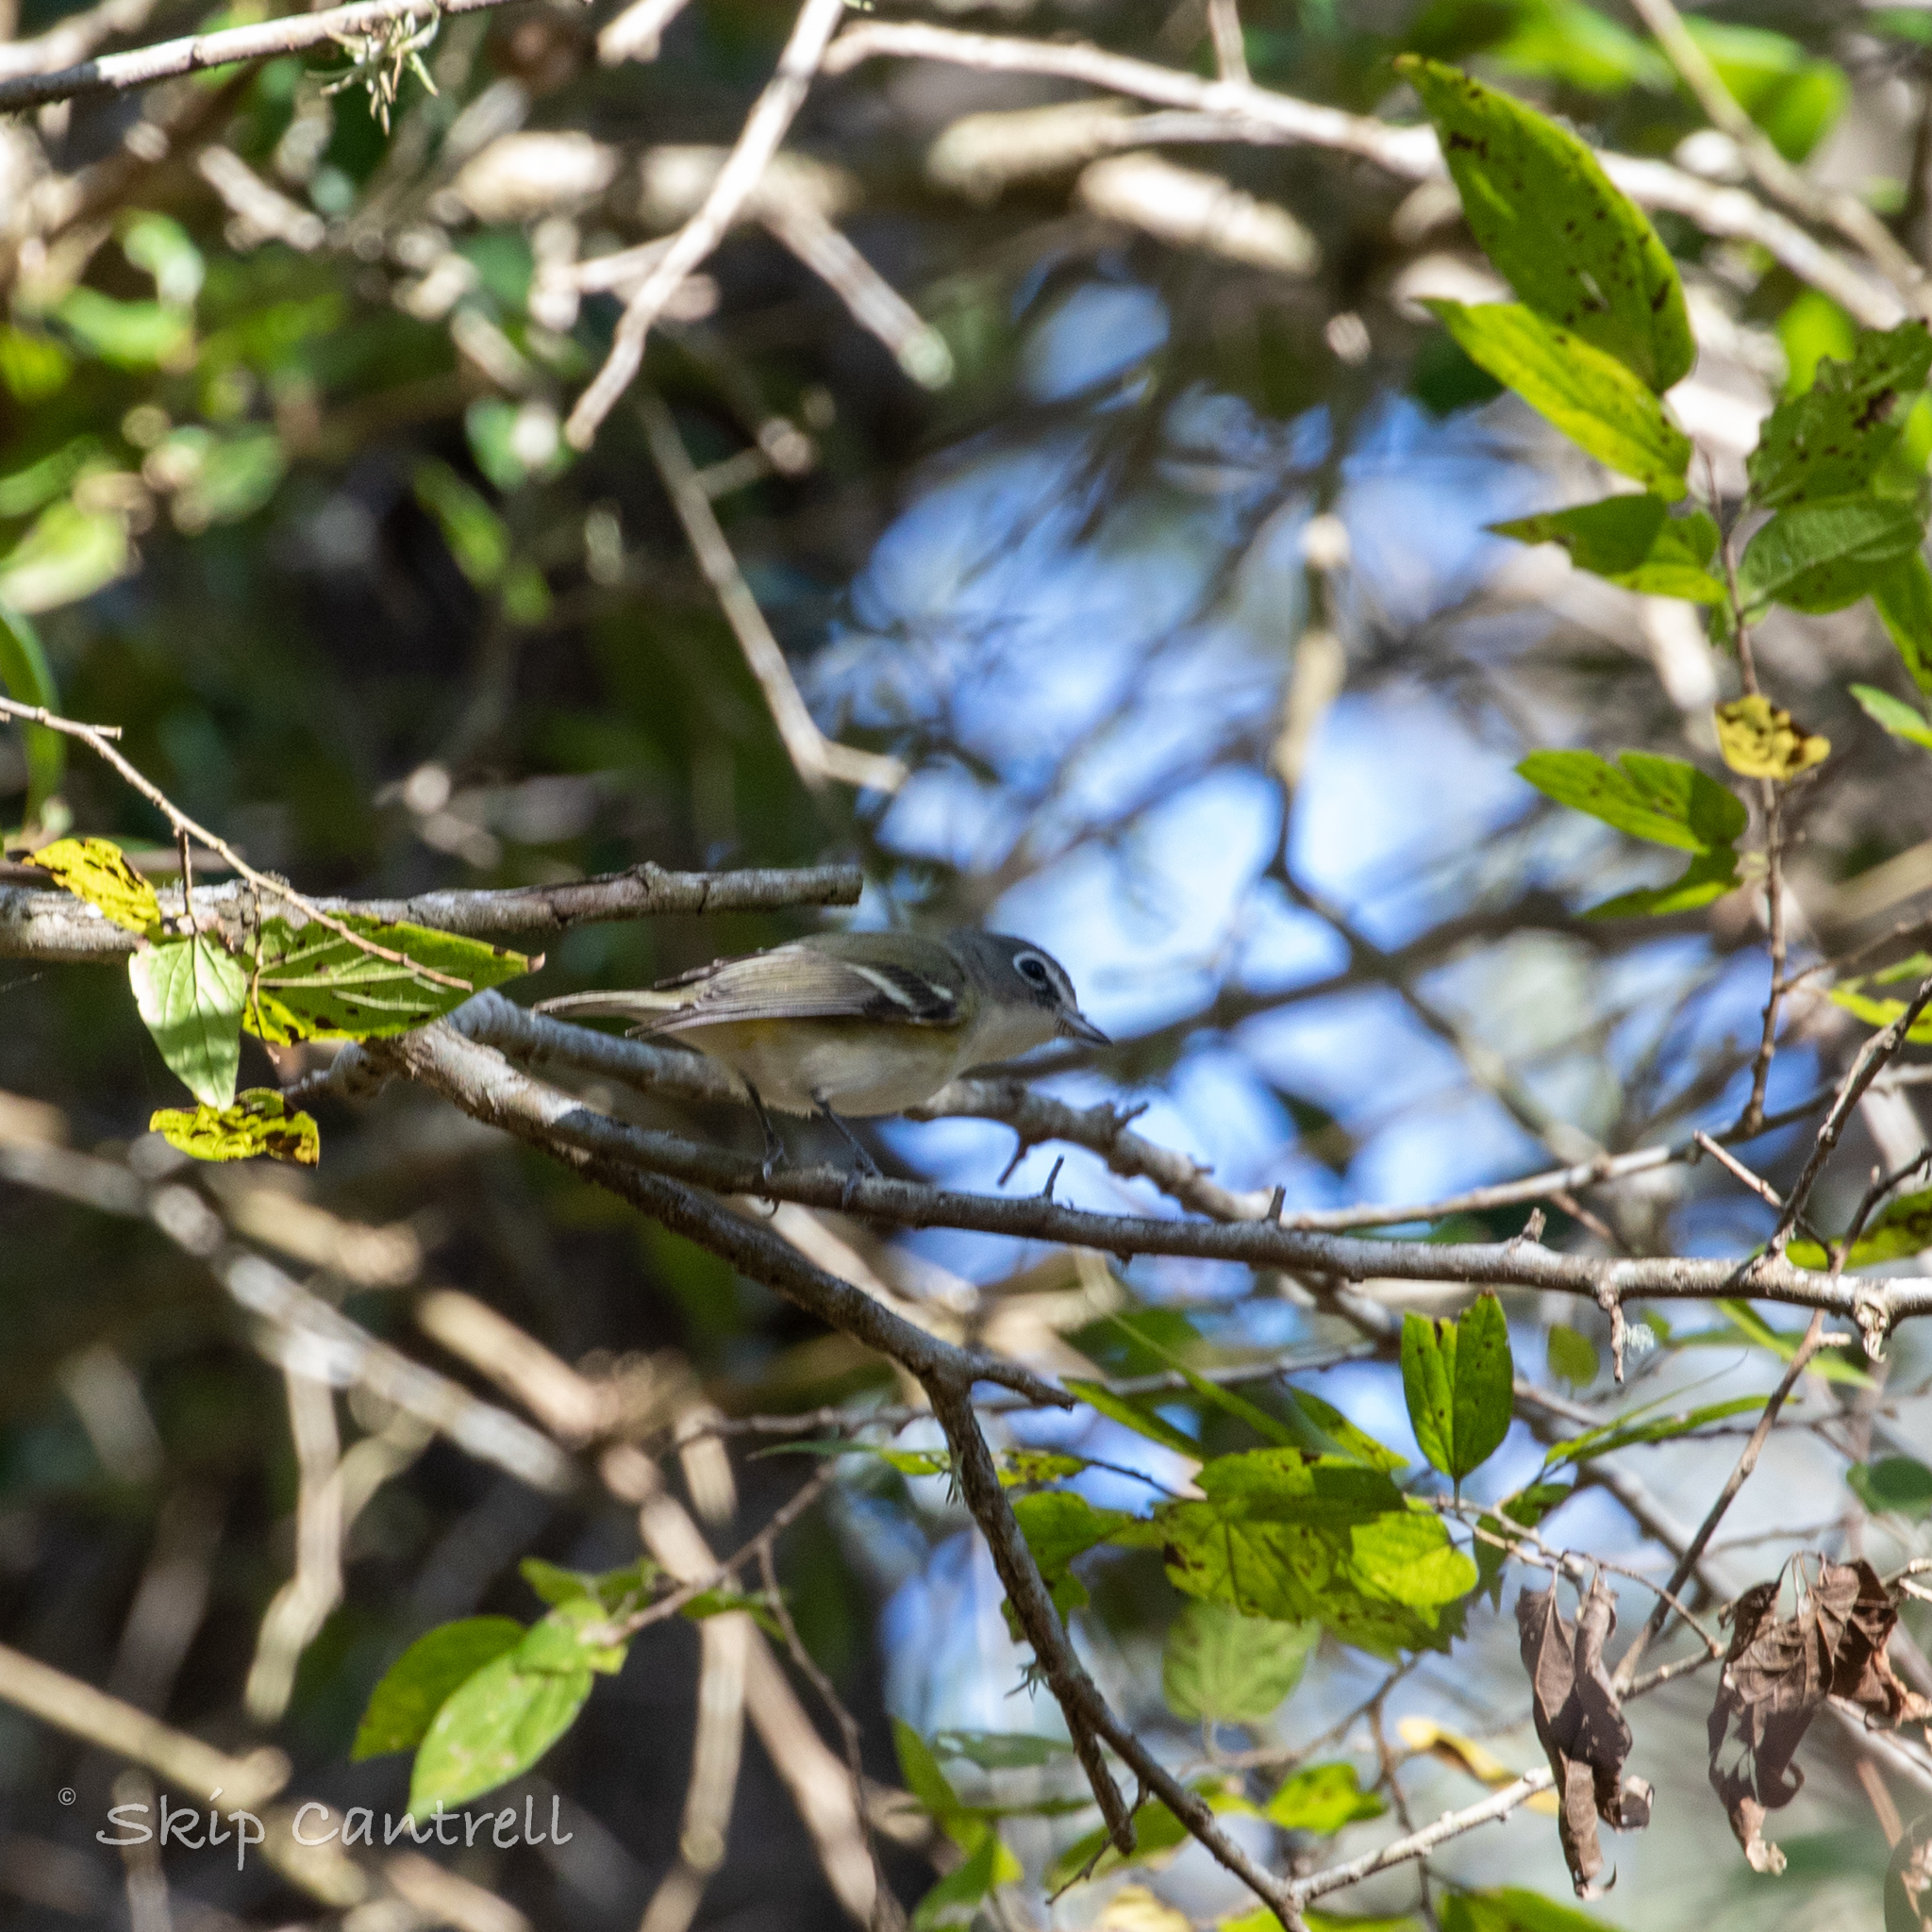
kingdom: Animalia
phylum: Chordata
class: Aves
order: Passeriformes
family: Vireonidae
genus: Vireo
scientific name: Vireo solitarius
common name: Blue-headed vireo
